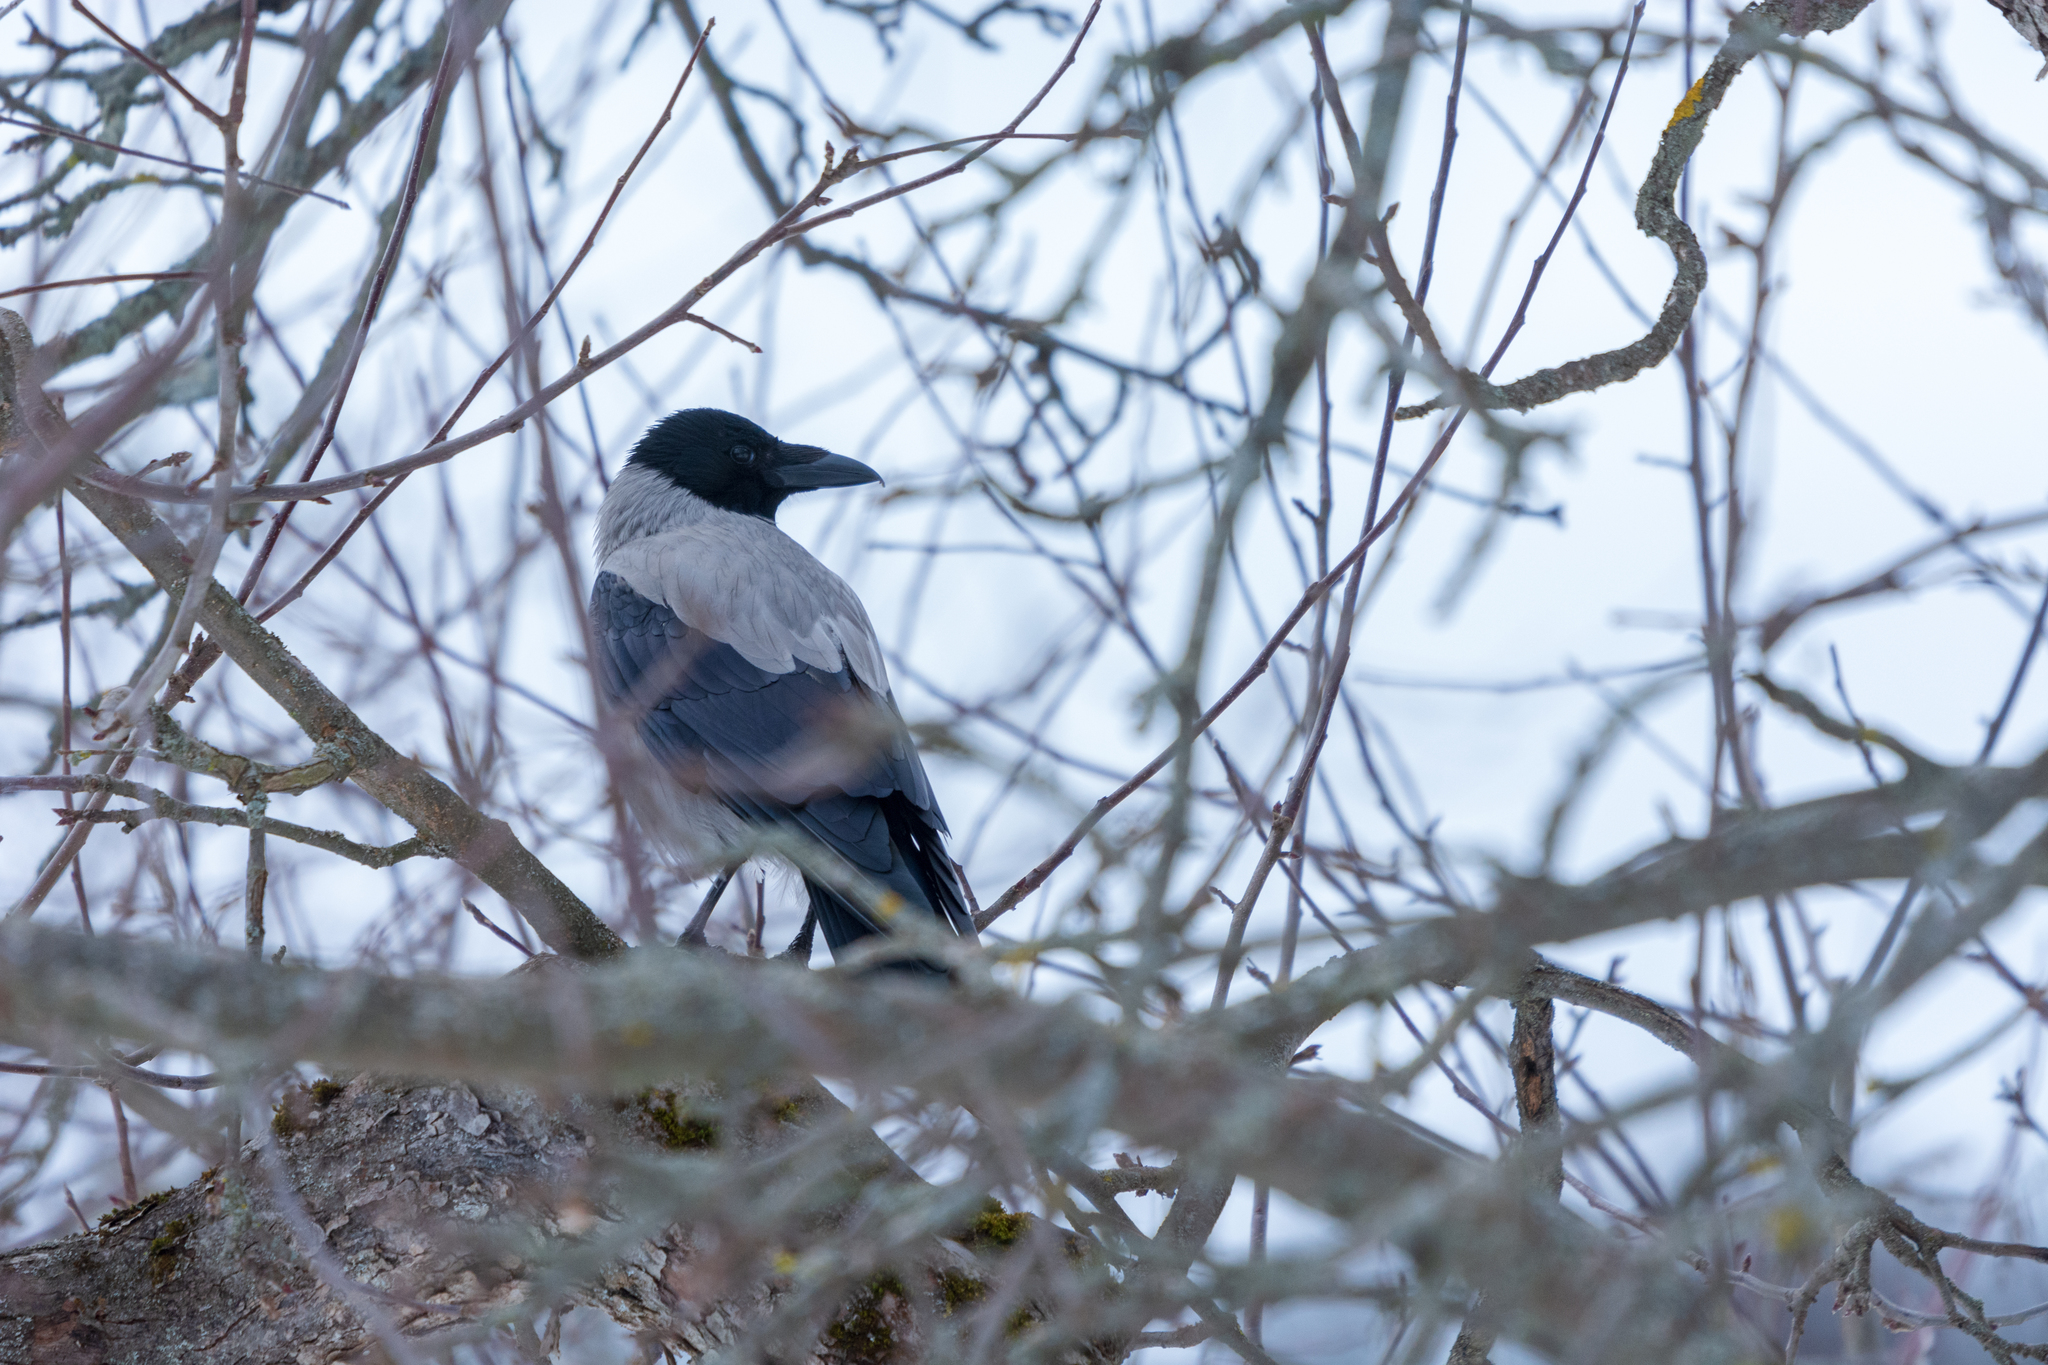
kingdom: Animalia
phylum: Chordata
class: Aves
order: Passeriformes
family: Corvidae
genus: Corvus
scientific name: Corvus cornix
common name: Hooded crow
